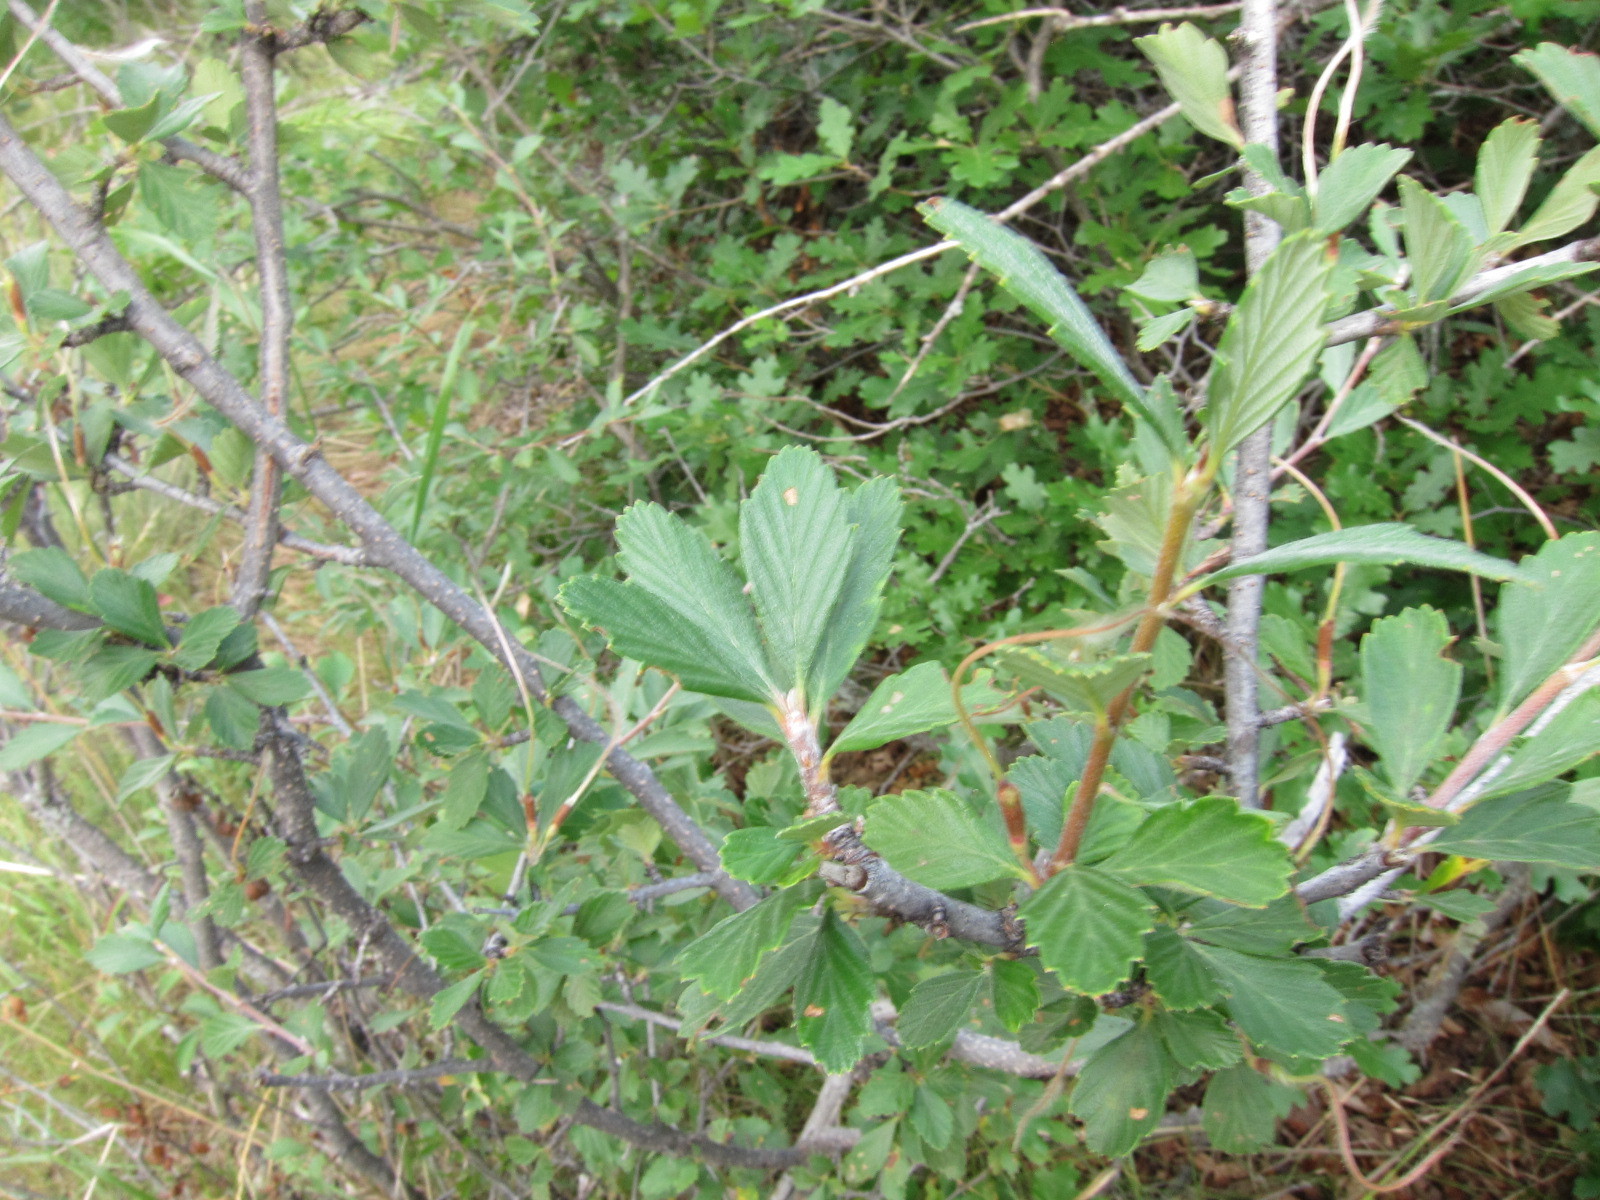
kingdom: Plantae
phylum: Tracheophyta
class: Magnoliopsida
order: Rosales
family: Rosaceae
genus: Cercocarpus
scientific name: Cercocarpus montanus
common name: Alder-leaf cercocarpus
